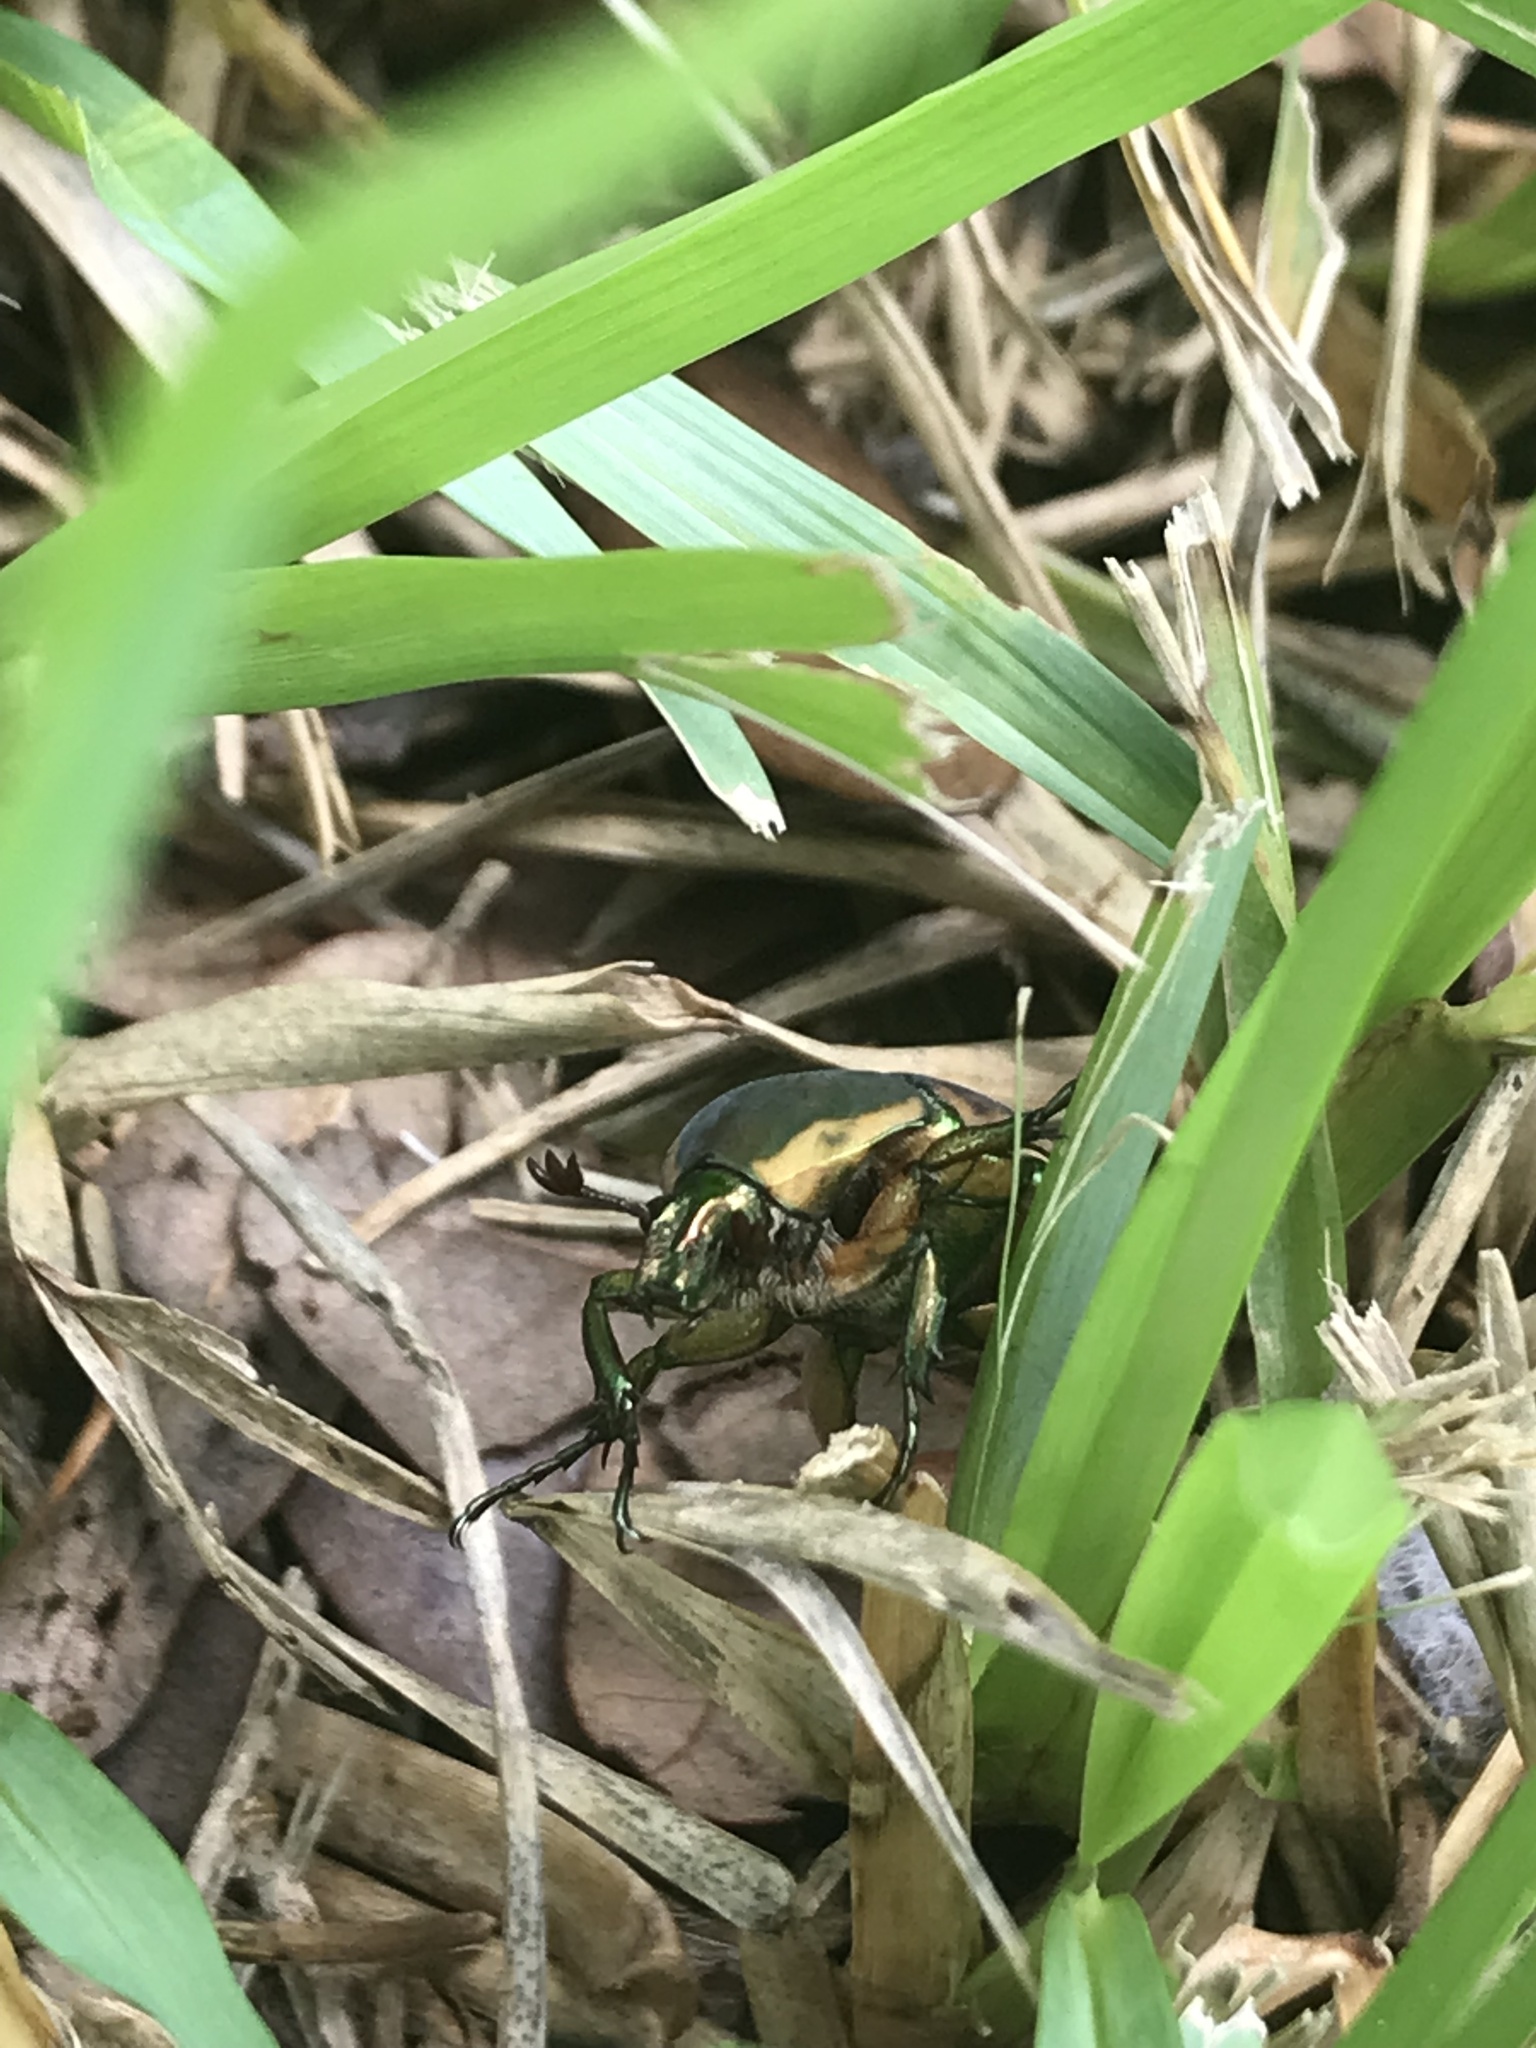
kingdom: Animalia
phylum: Arthropoda
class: Insecta
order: Coleoptera
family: Scarabaeidae
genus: Cotinis
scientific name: Cotinis nitida
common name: Common green june beetle
